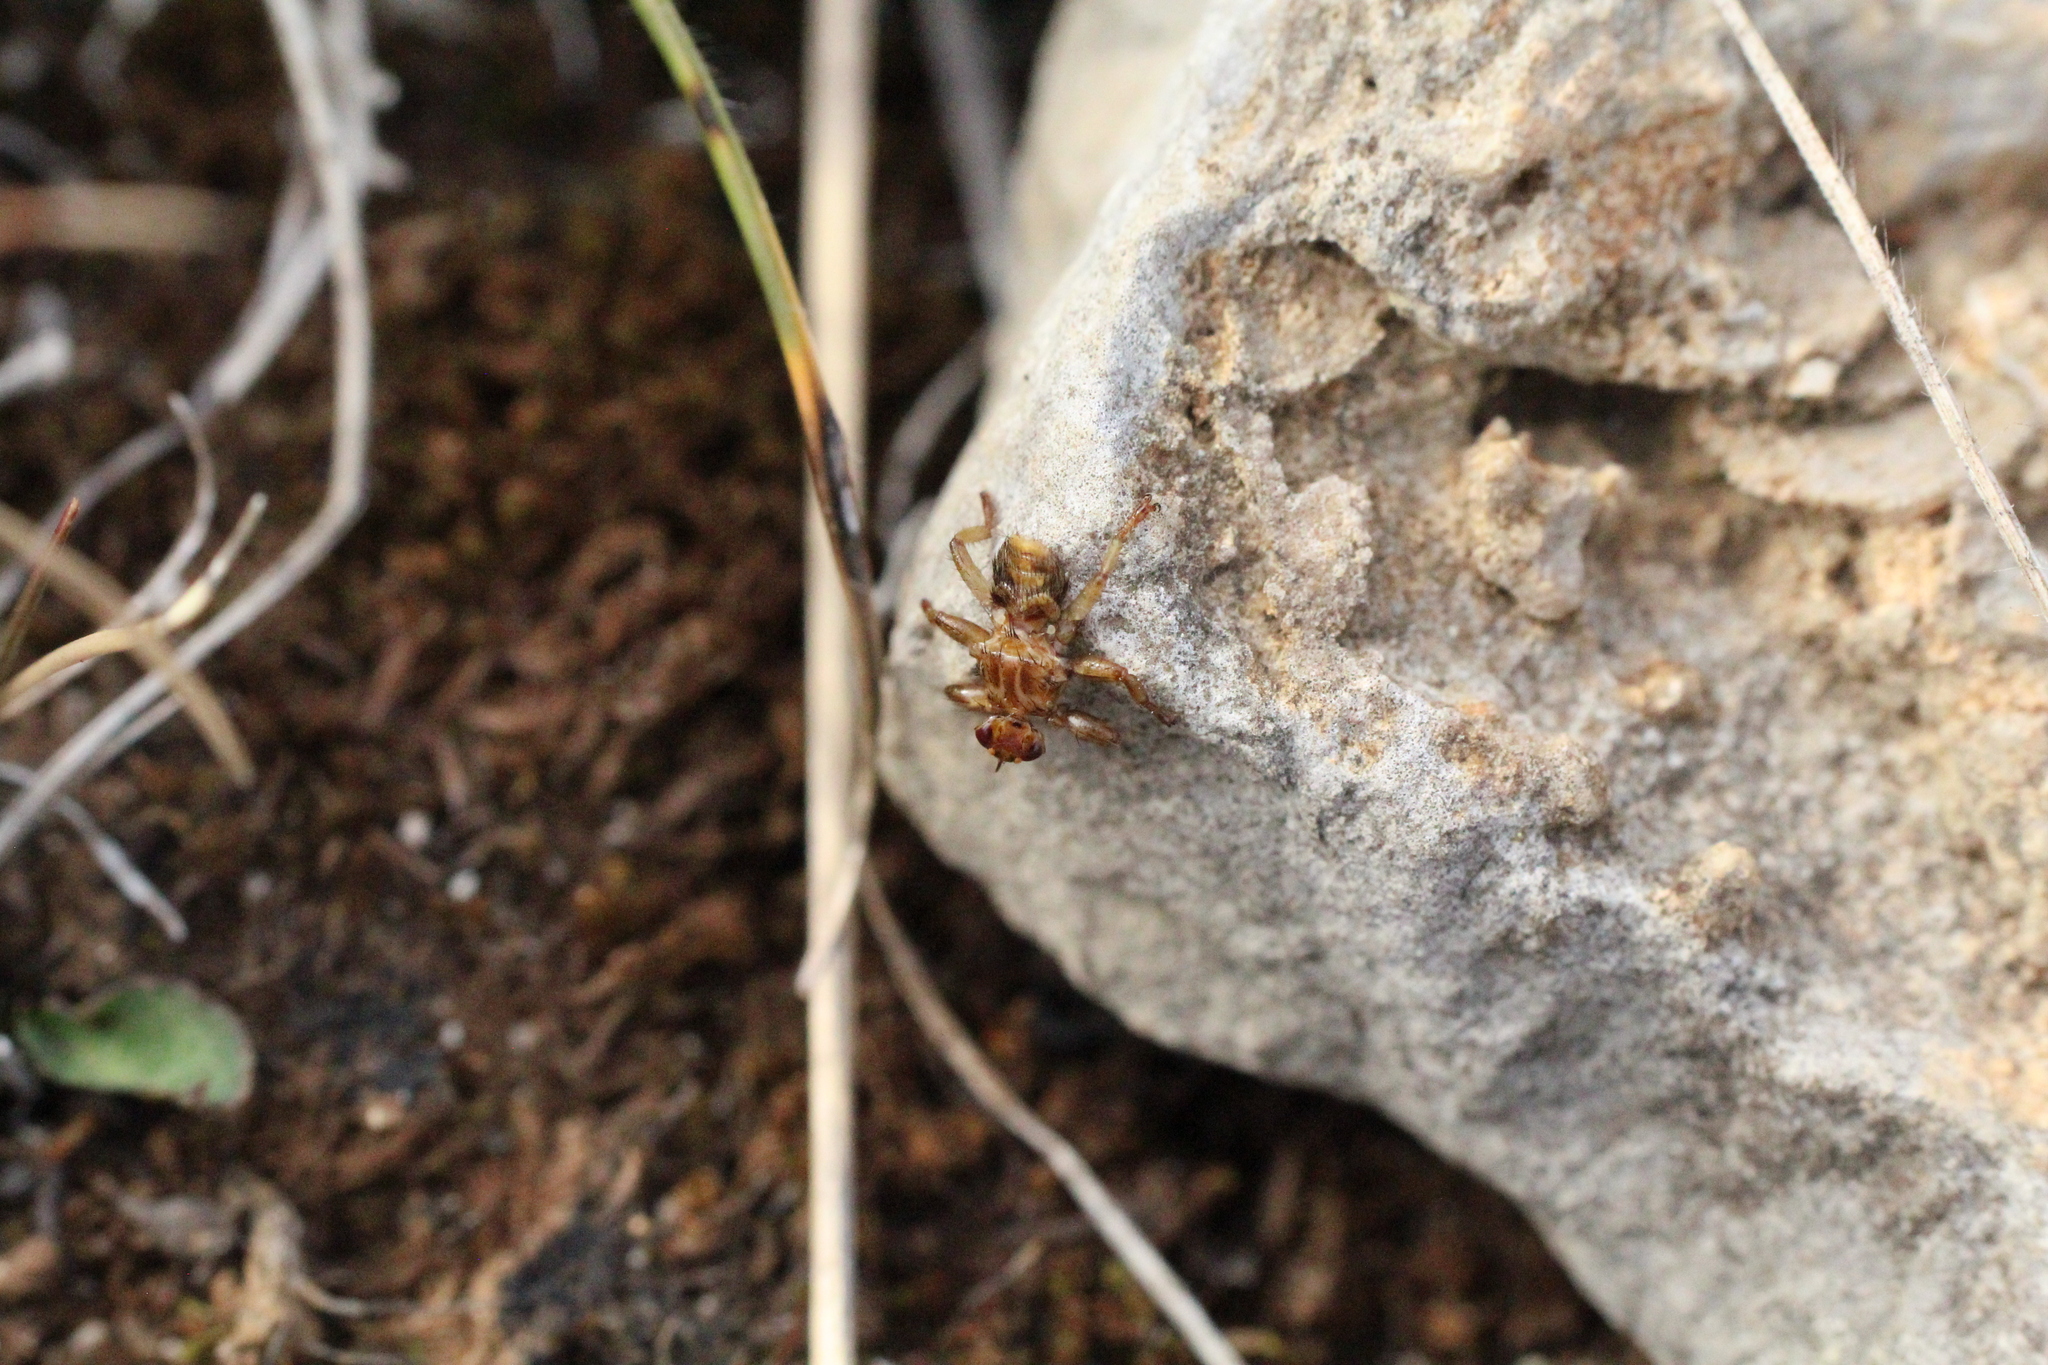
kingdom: Animalia
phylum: Arthropoda
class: Insecta
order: Diptera
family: Hippoboscidae
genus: Lipoptena
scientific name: Lipoptena cervi
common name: Deer ked
